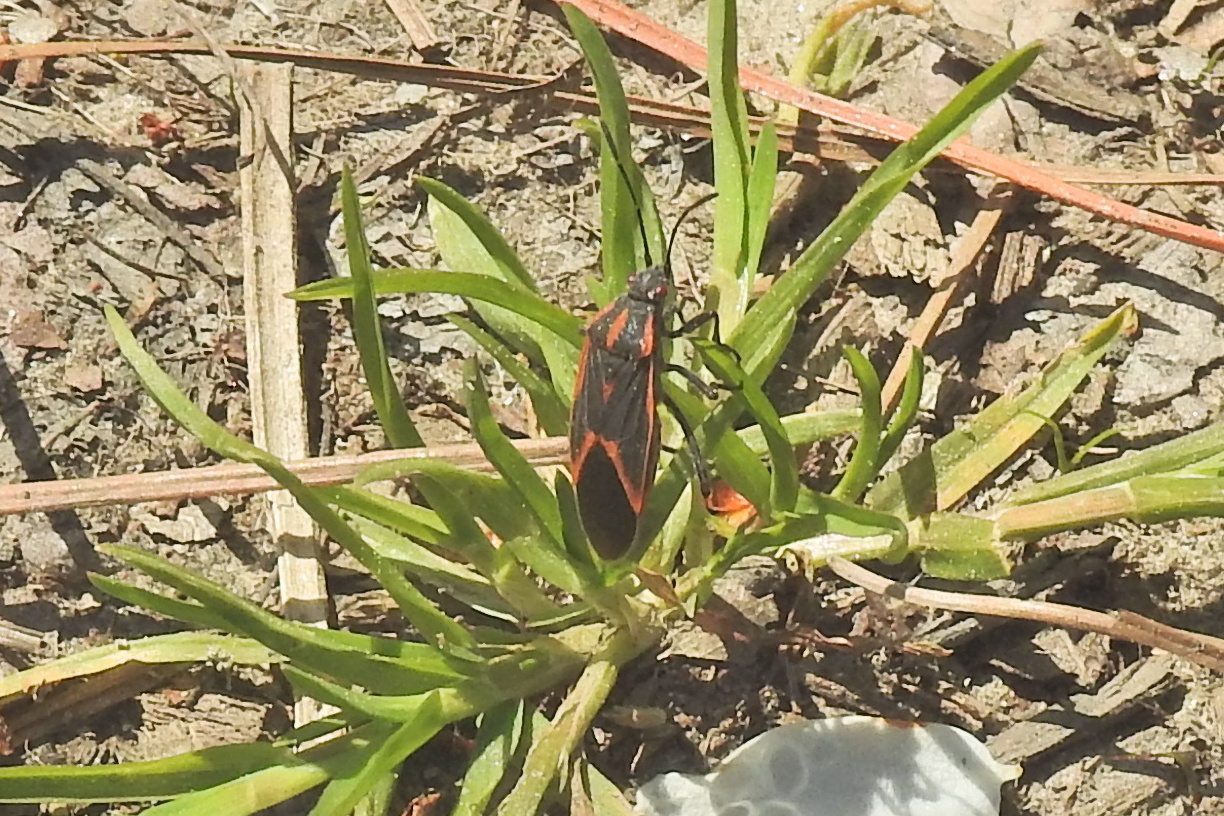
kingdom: Animalia
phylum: Arthropoda
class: Insecta
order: Hemiptera
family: Rhopalidae
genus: Boisea
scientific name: Boisea trivittata
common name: Boxelder bug
